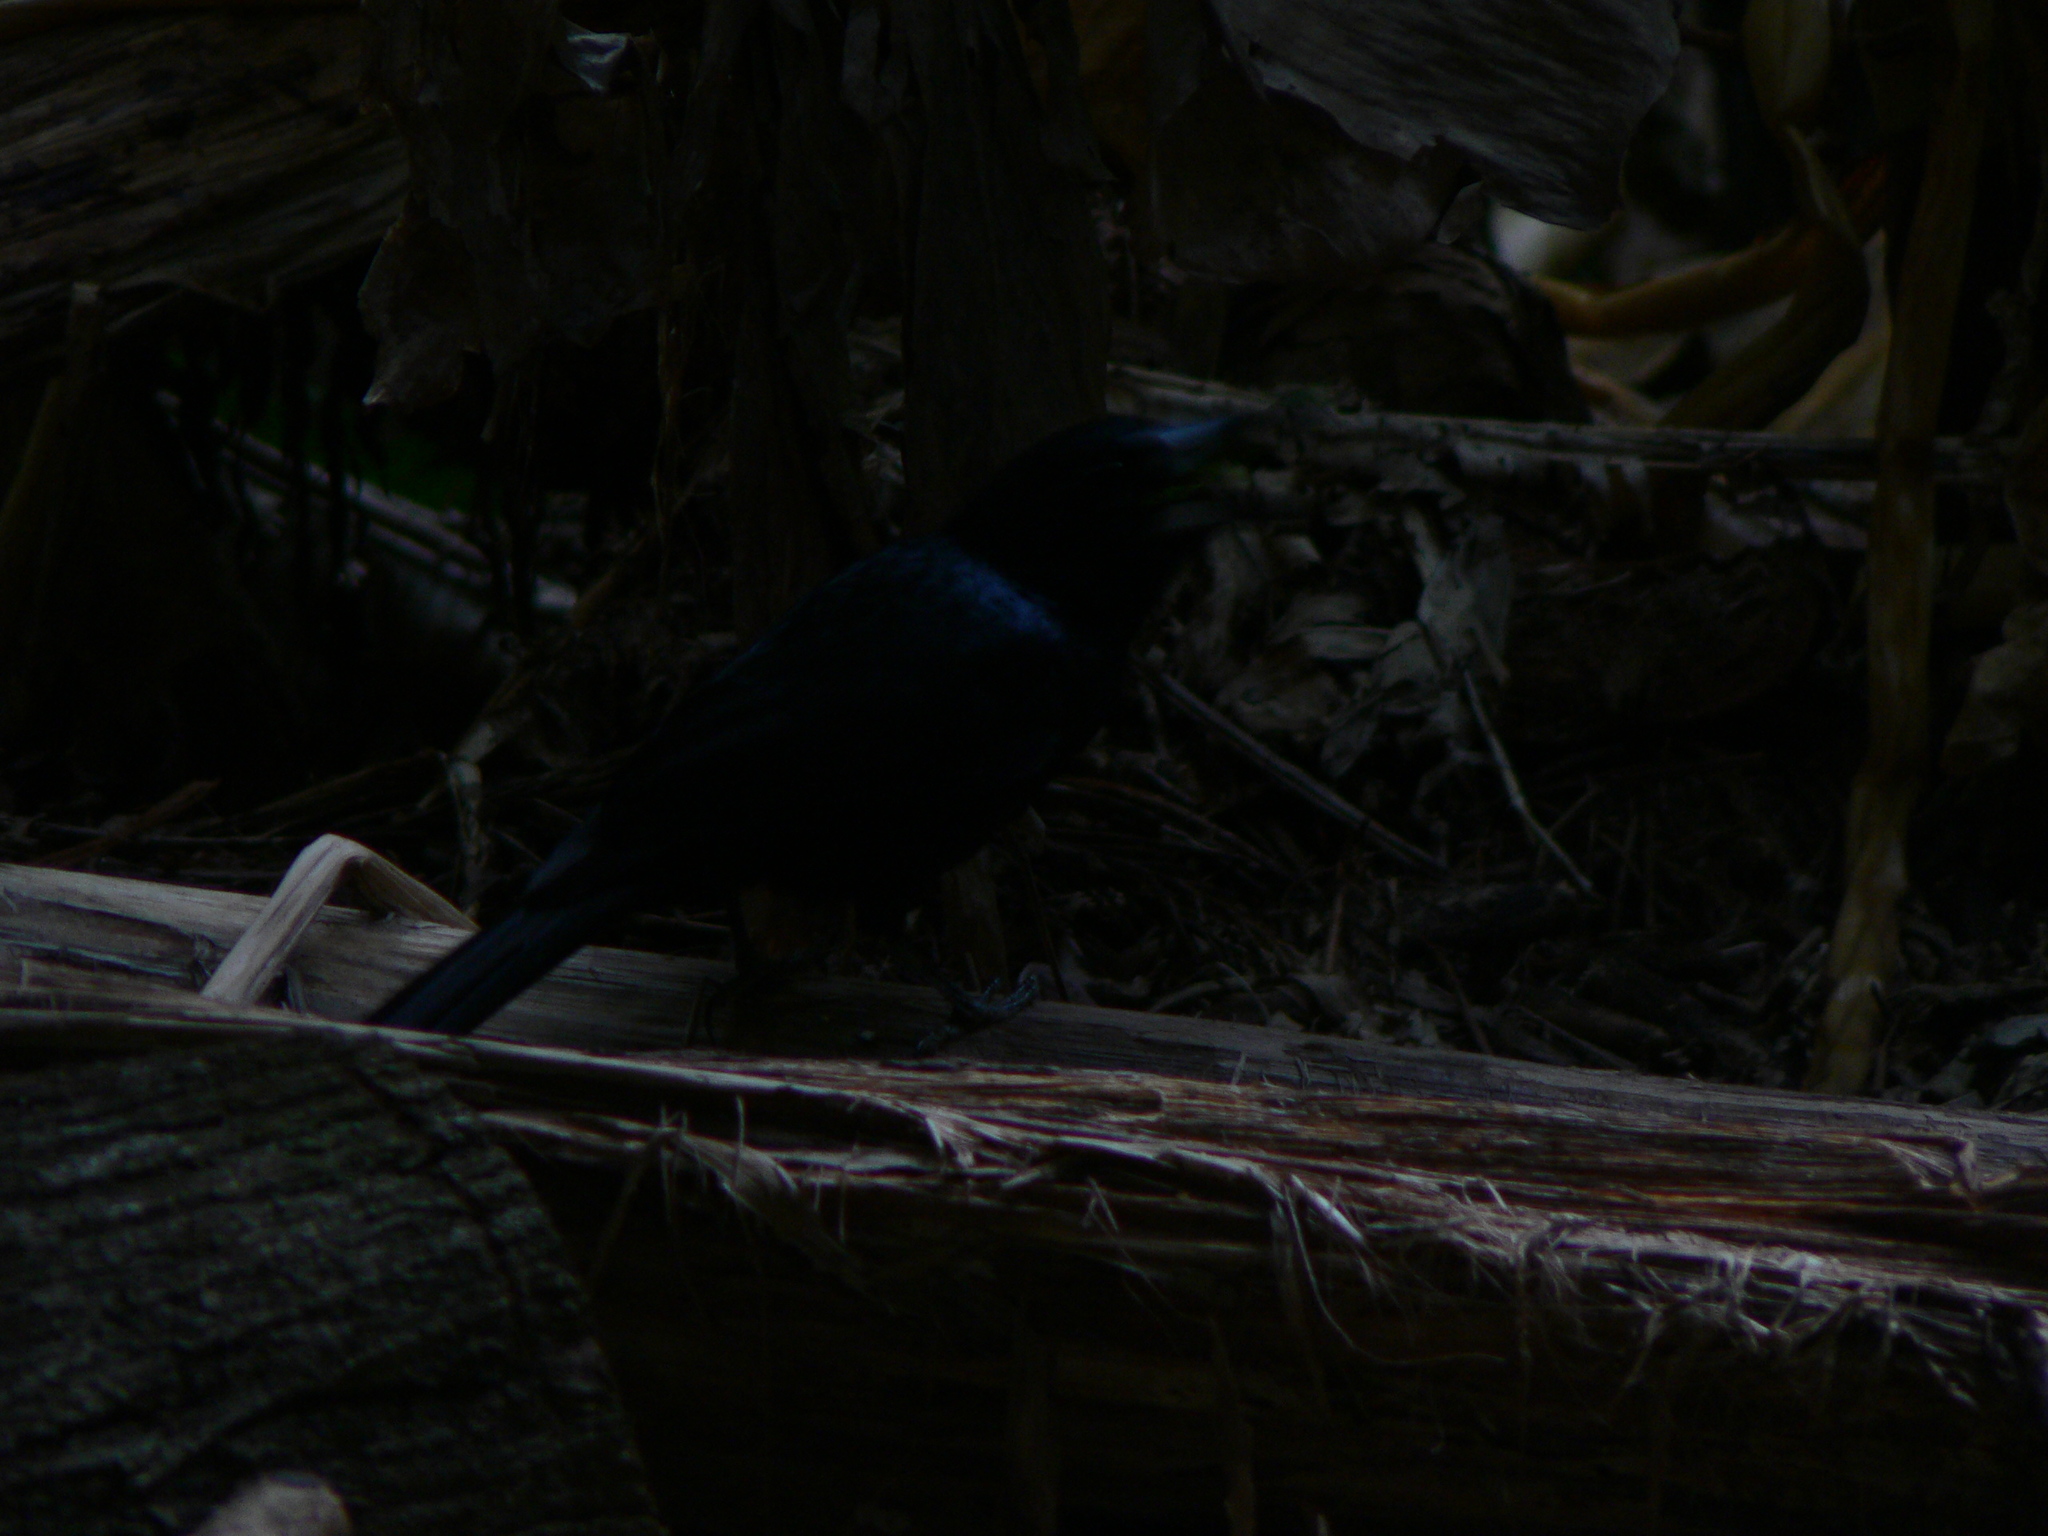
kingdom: Animalia
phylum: Chordata
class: Aves
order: Passeriformes
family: Artamidae
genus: Melloria
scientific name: Melloria quoyi
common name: Black butcherbird
